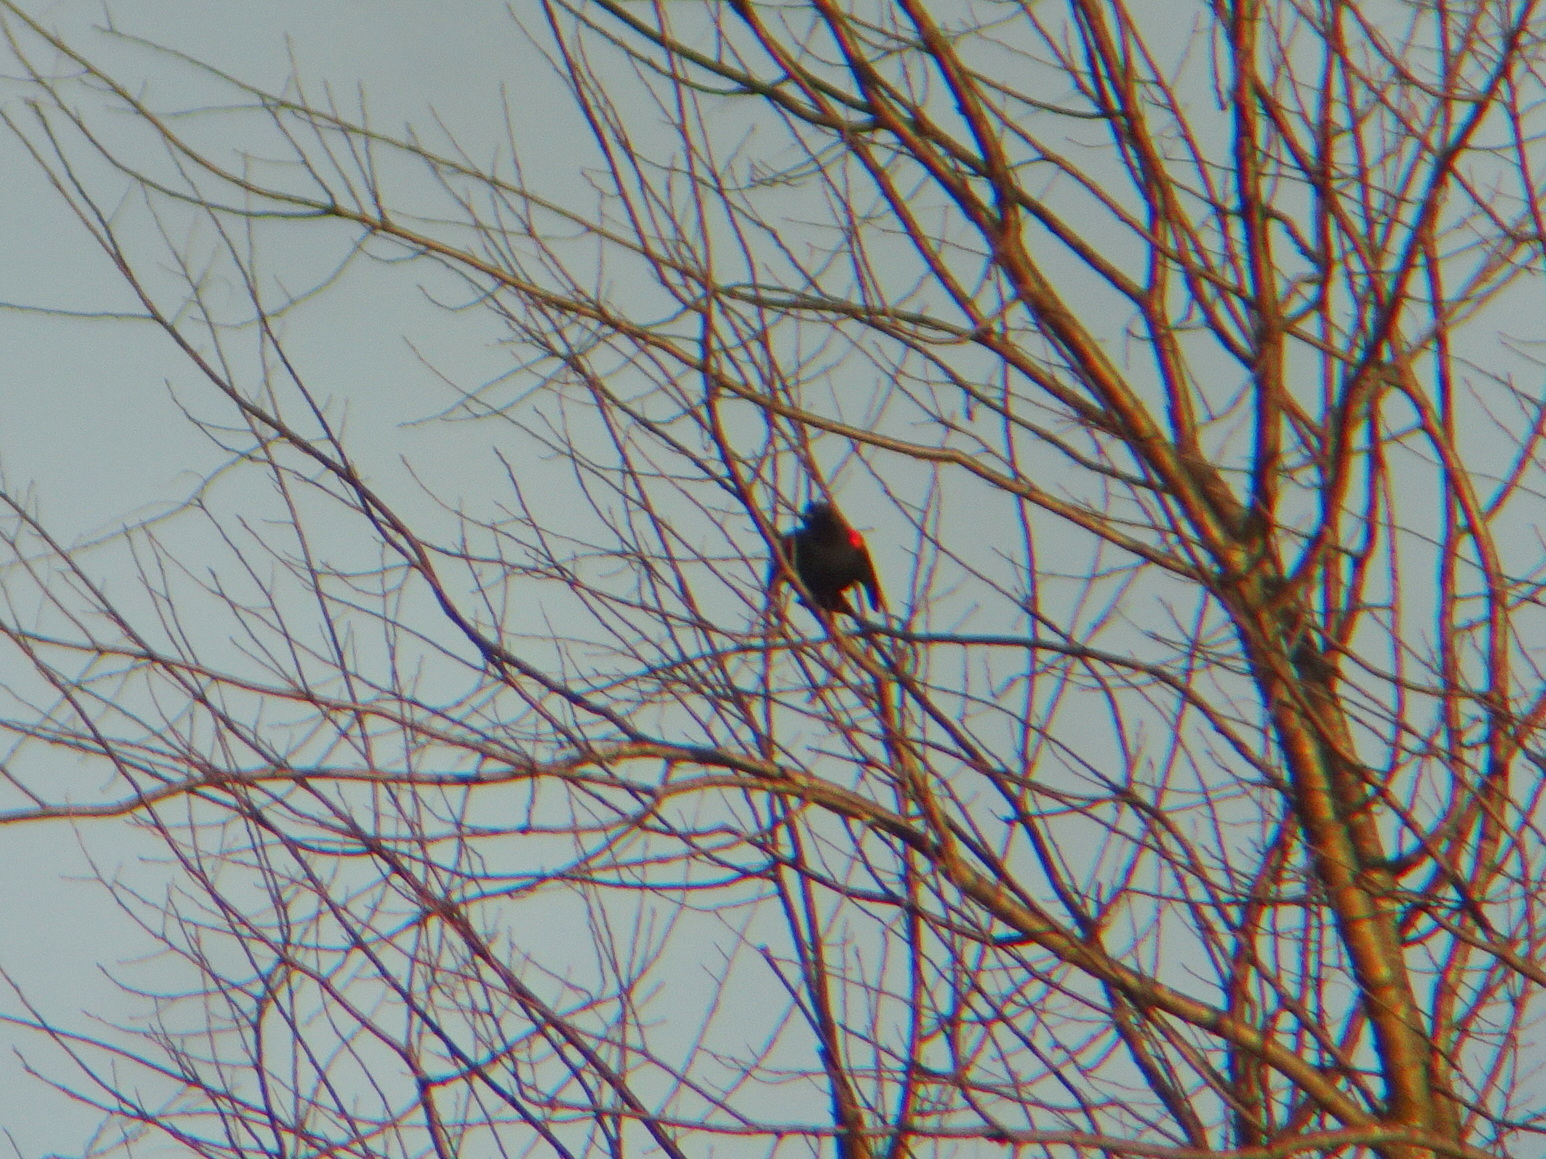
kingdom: Animalia
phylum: Chordata
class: Aves
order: Passeriformes
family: Icteridae
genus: Agelaius
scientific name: Agelaius phoeniceus
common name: Red-winged blackbird
